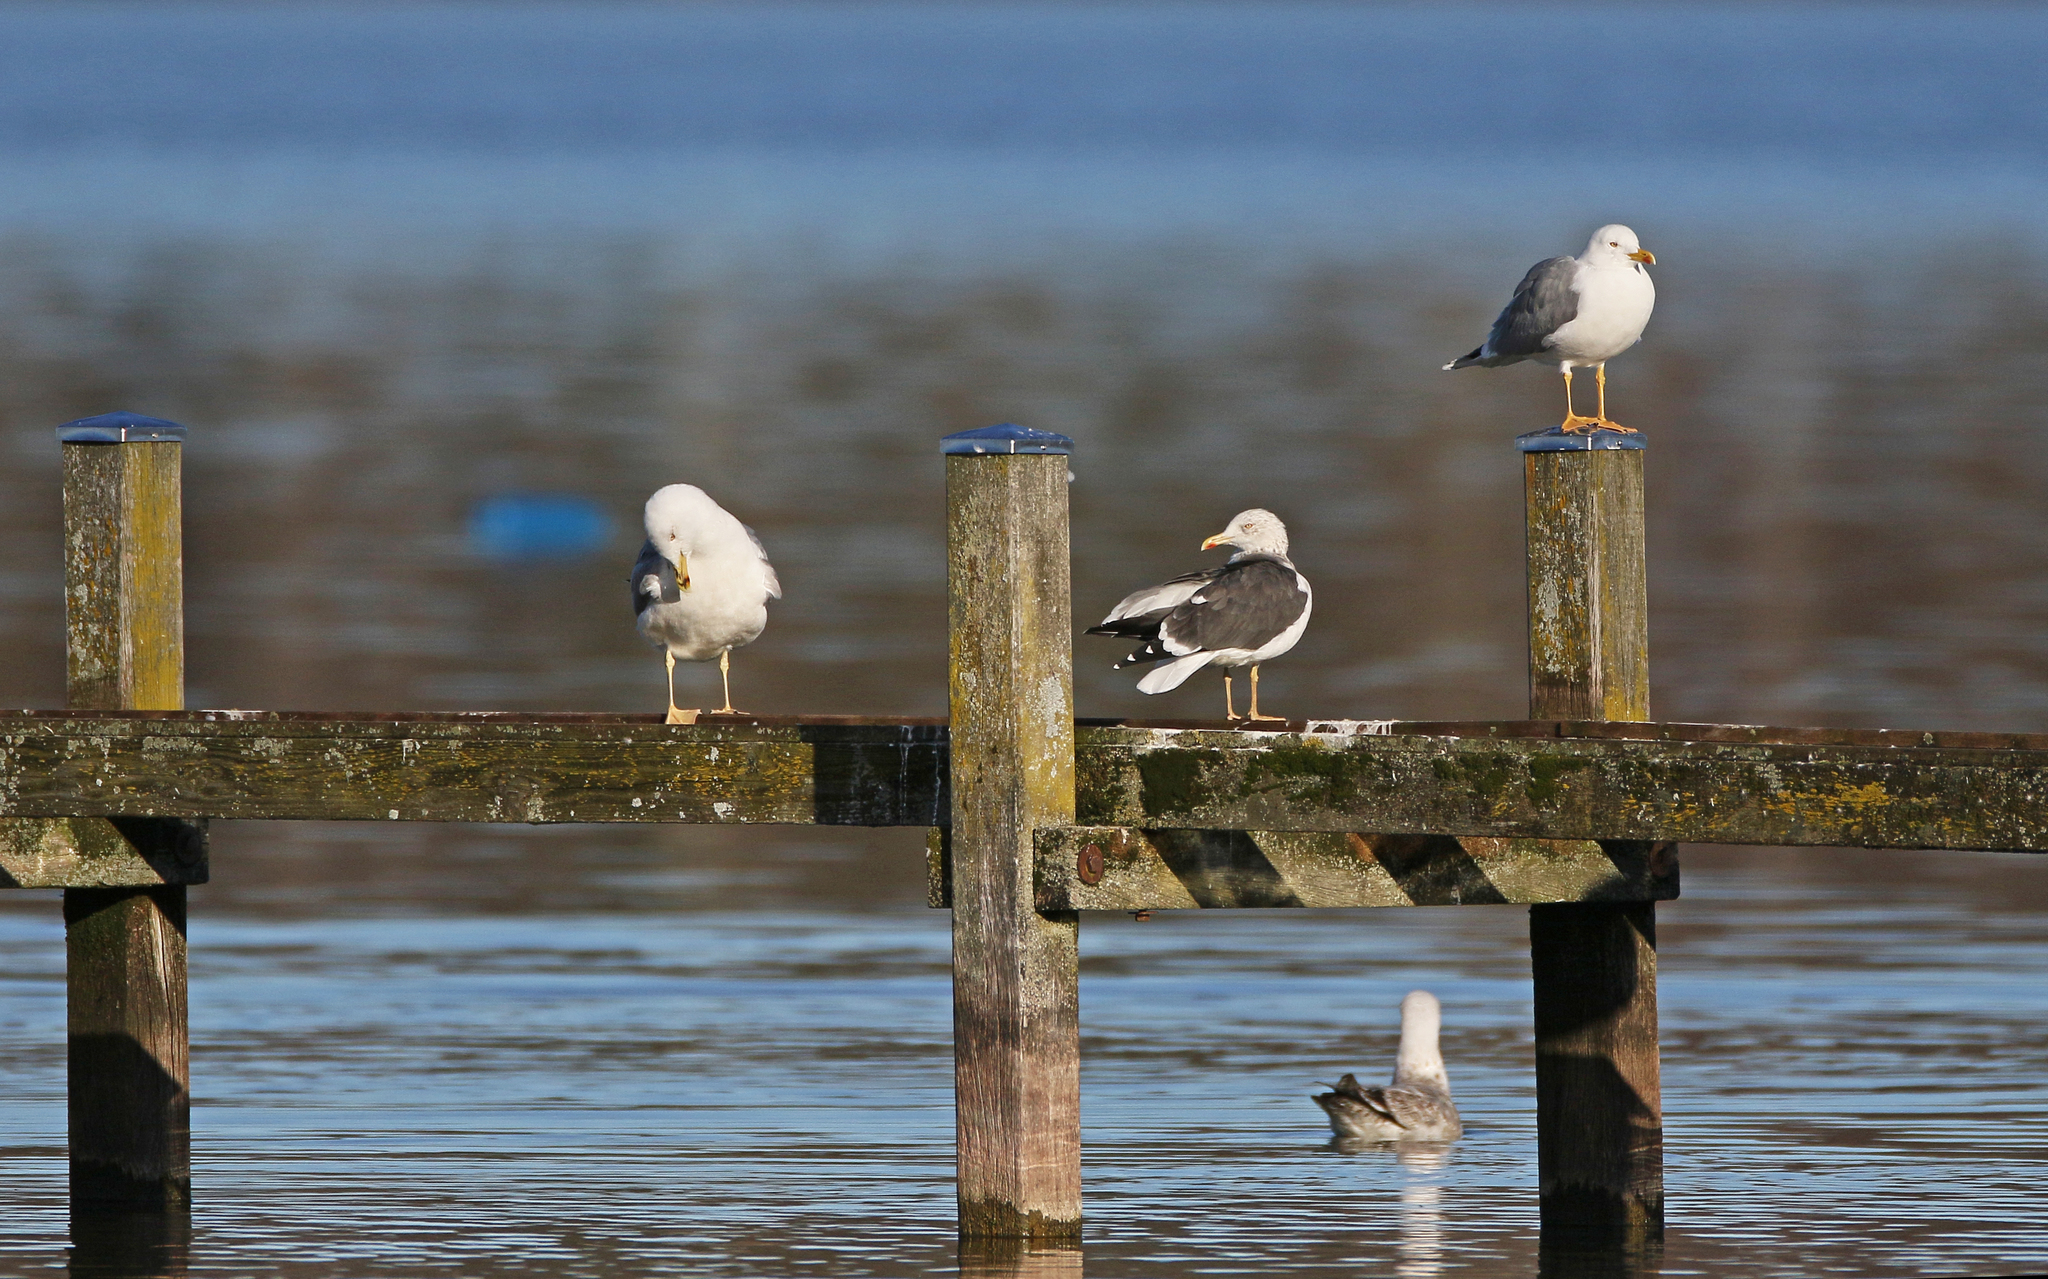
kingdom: Animalia
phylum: Chordata
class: Aves
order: Charadriiformes
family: Laridae
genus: Larus
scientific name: Larus fuscus
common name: Lesser black-backed gull
